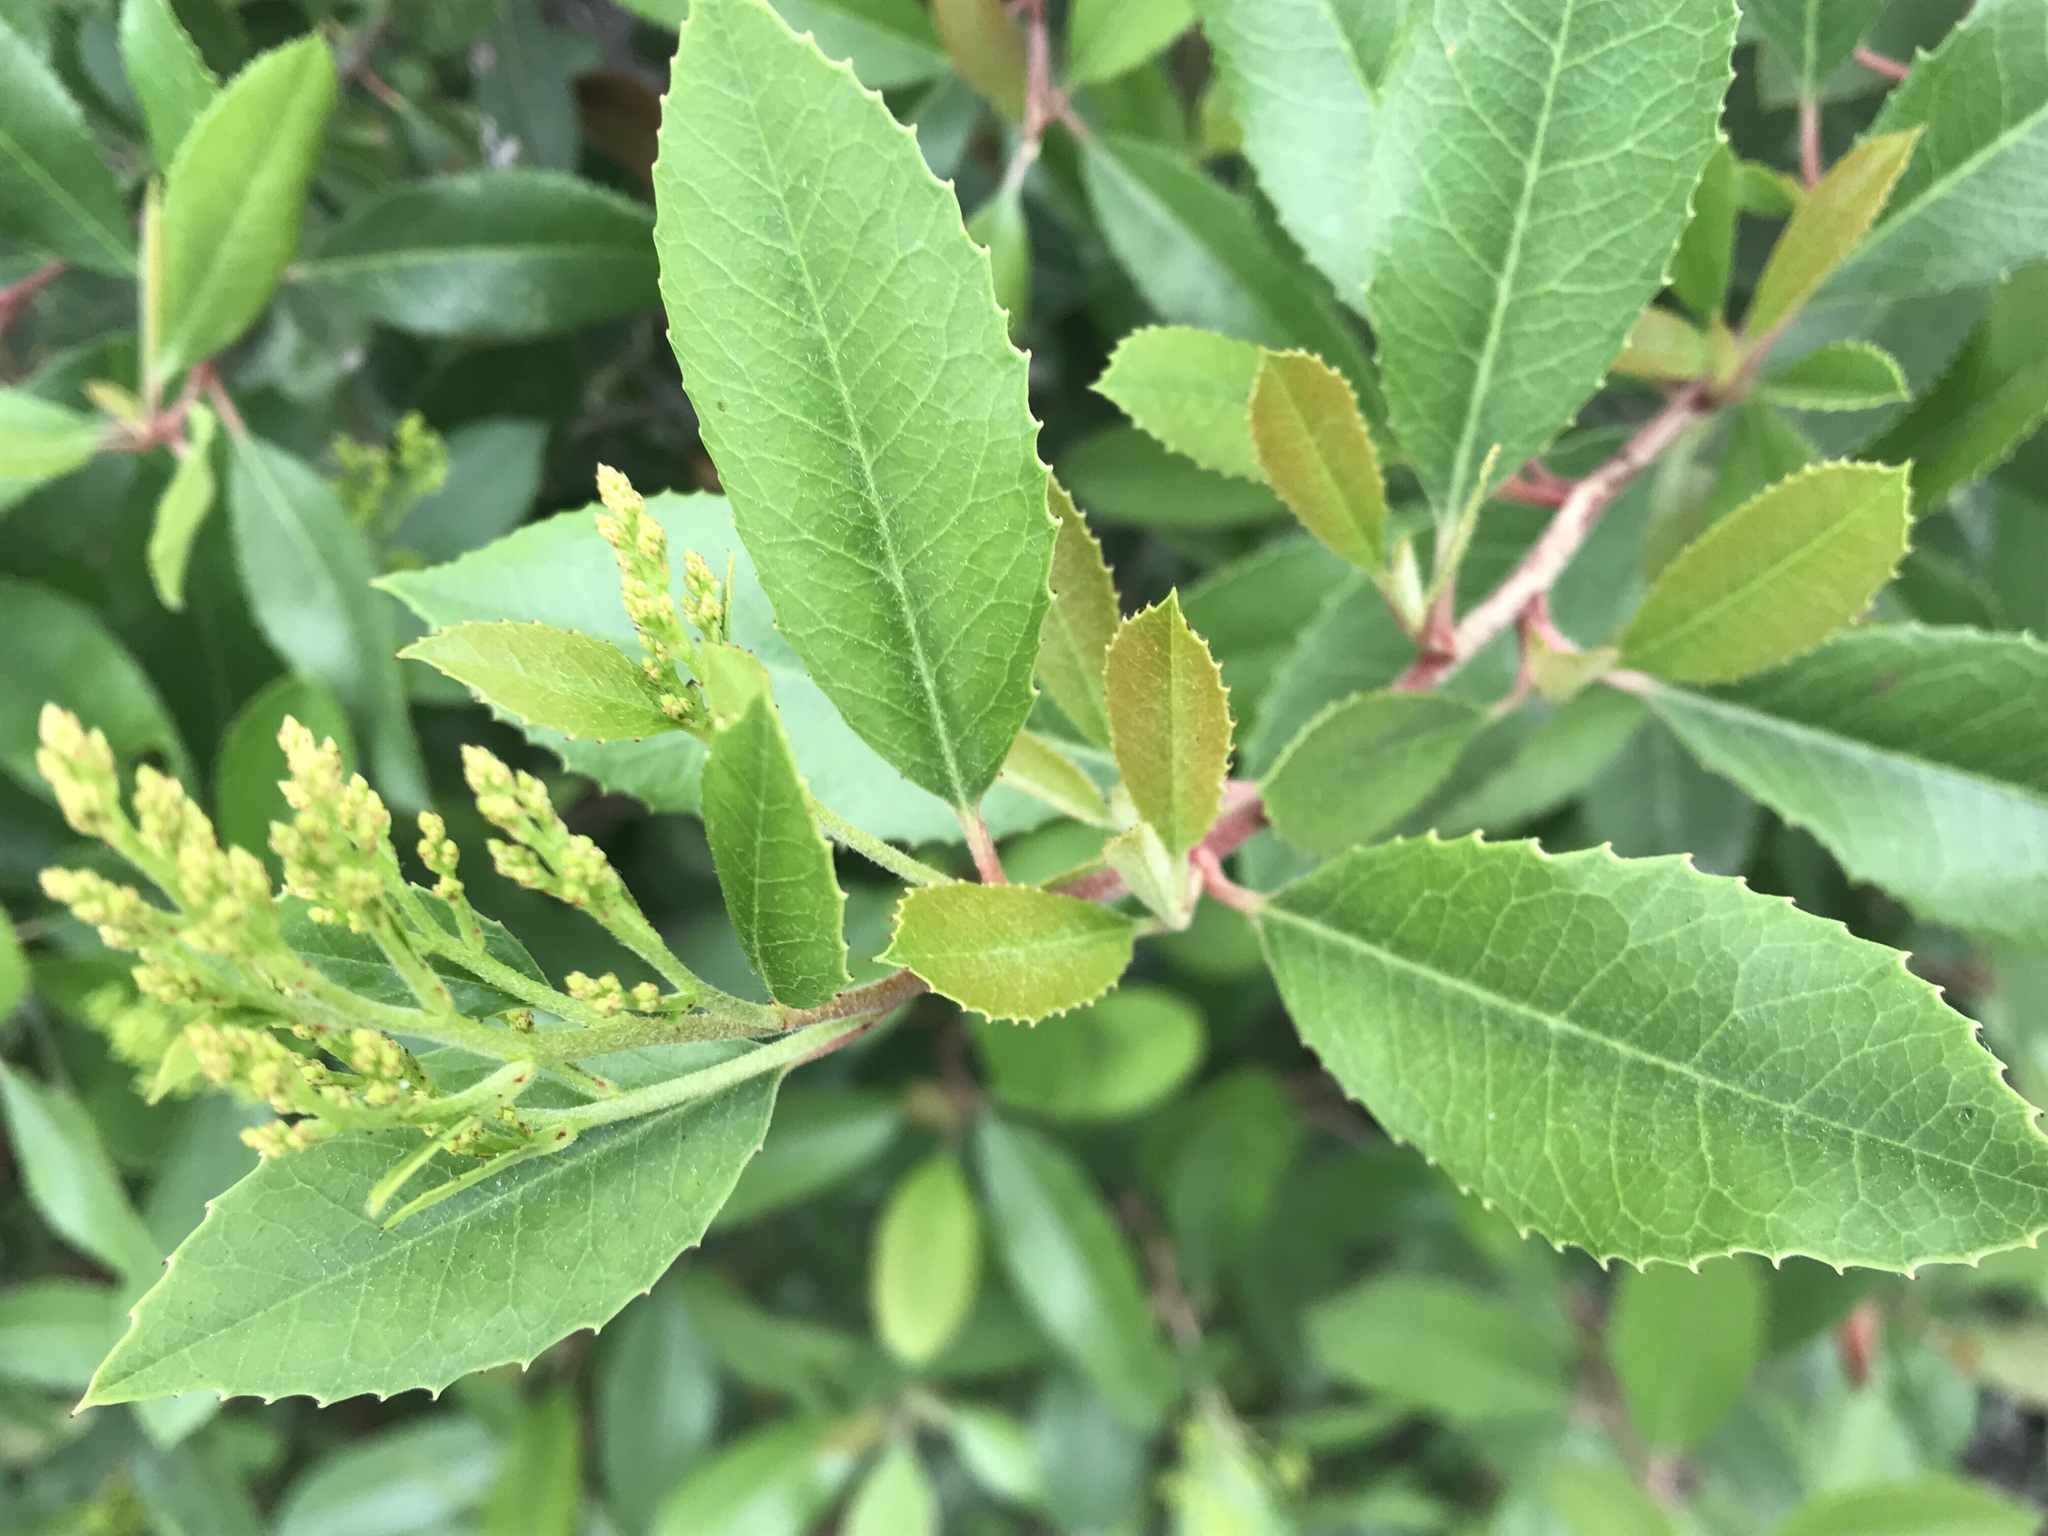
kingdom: Plantae
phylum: Tracheophyta
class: Magnoliopsida
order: Rosales
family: Rosaceae
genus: Heteromeles
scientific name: Heteromeles arbutifolia
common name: California-holly
